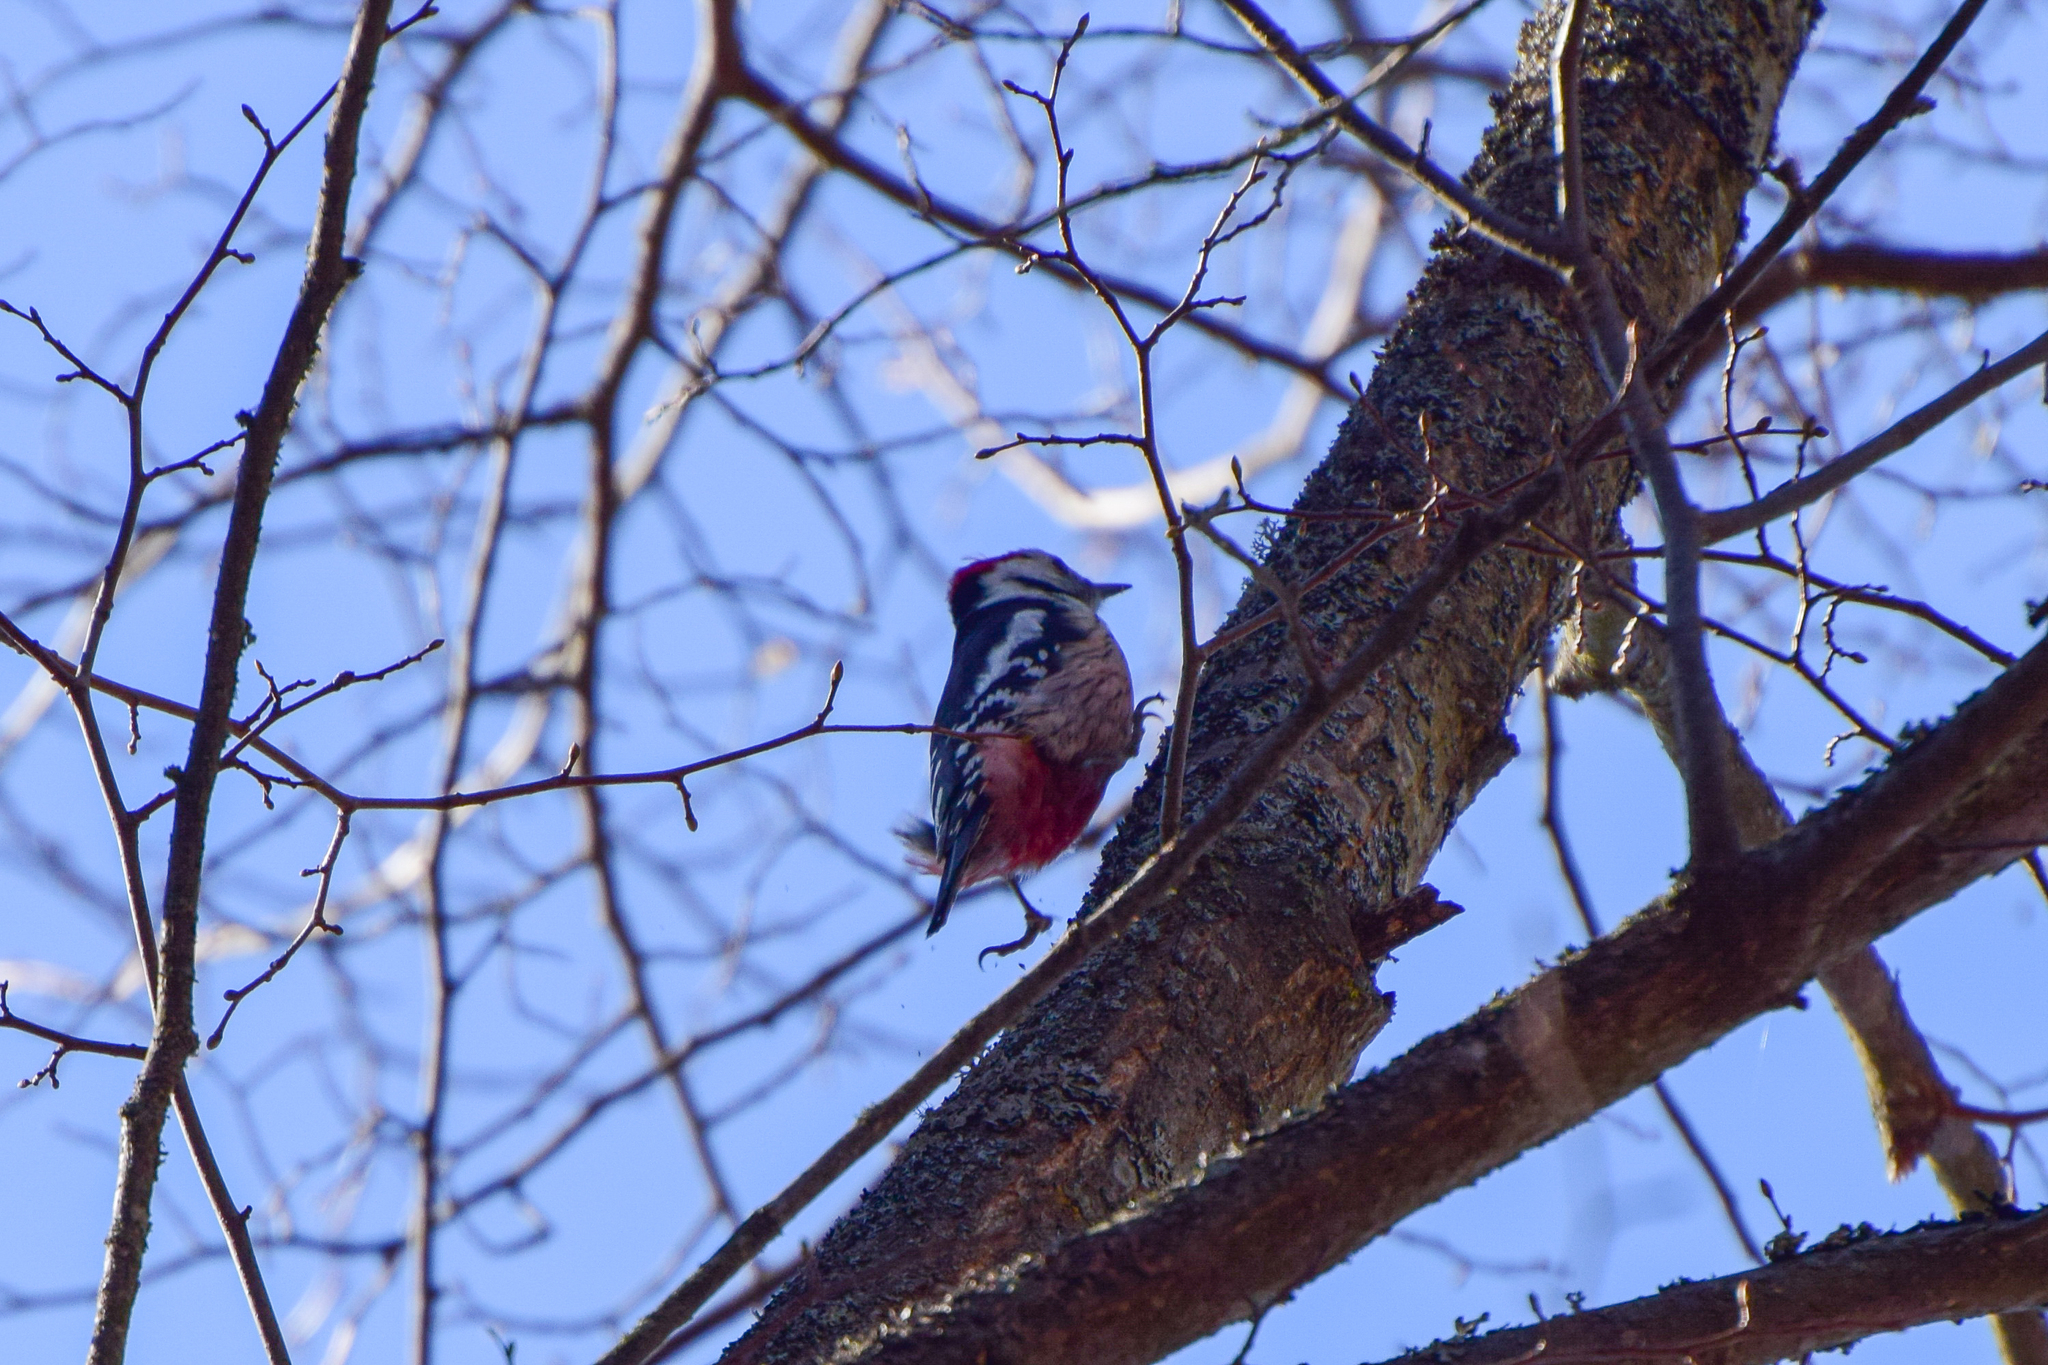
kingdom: Animalia
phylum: Chordata
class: Aves
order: Piciformes
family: Picidae
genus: Dendrocoptes
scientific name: Dendrocoptes medius
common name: Middle spotted woodpecker
